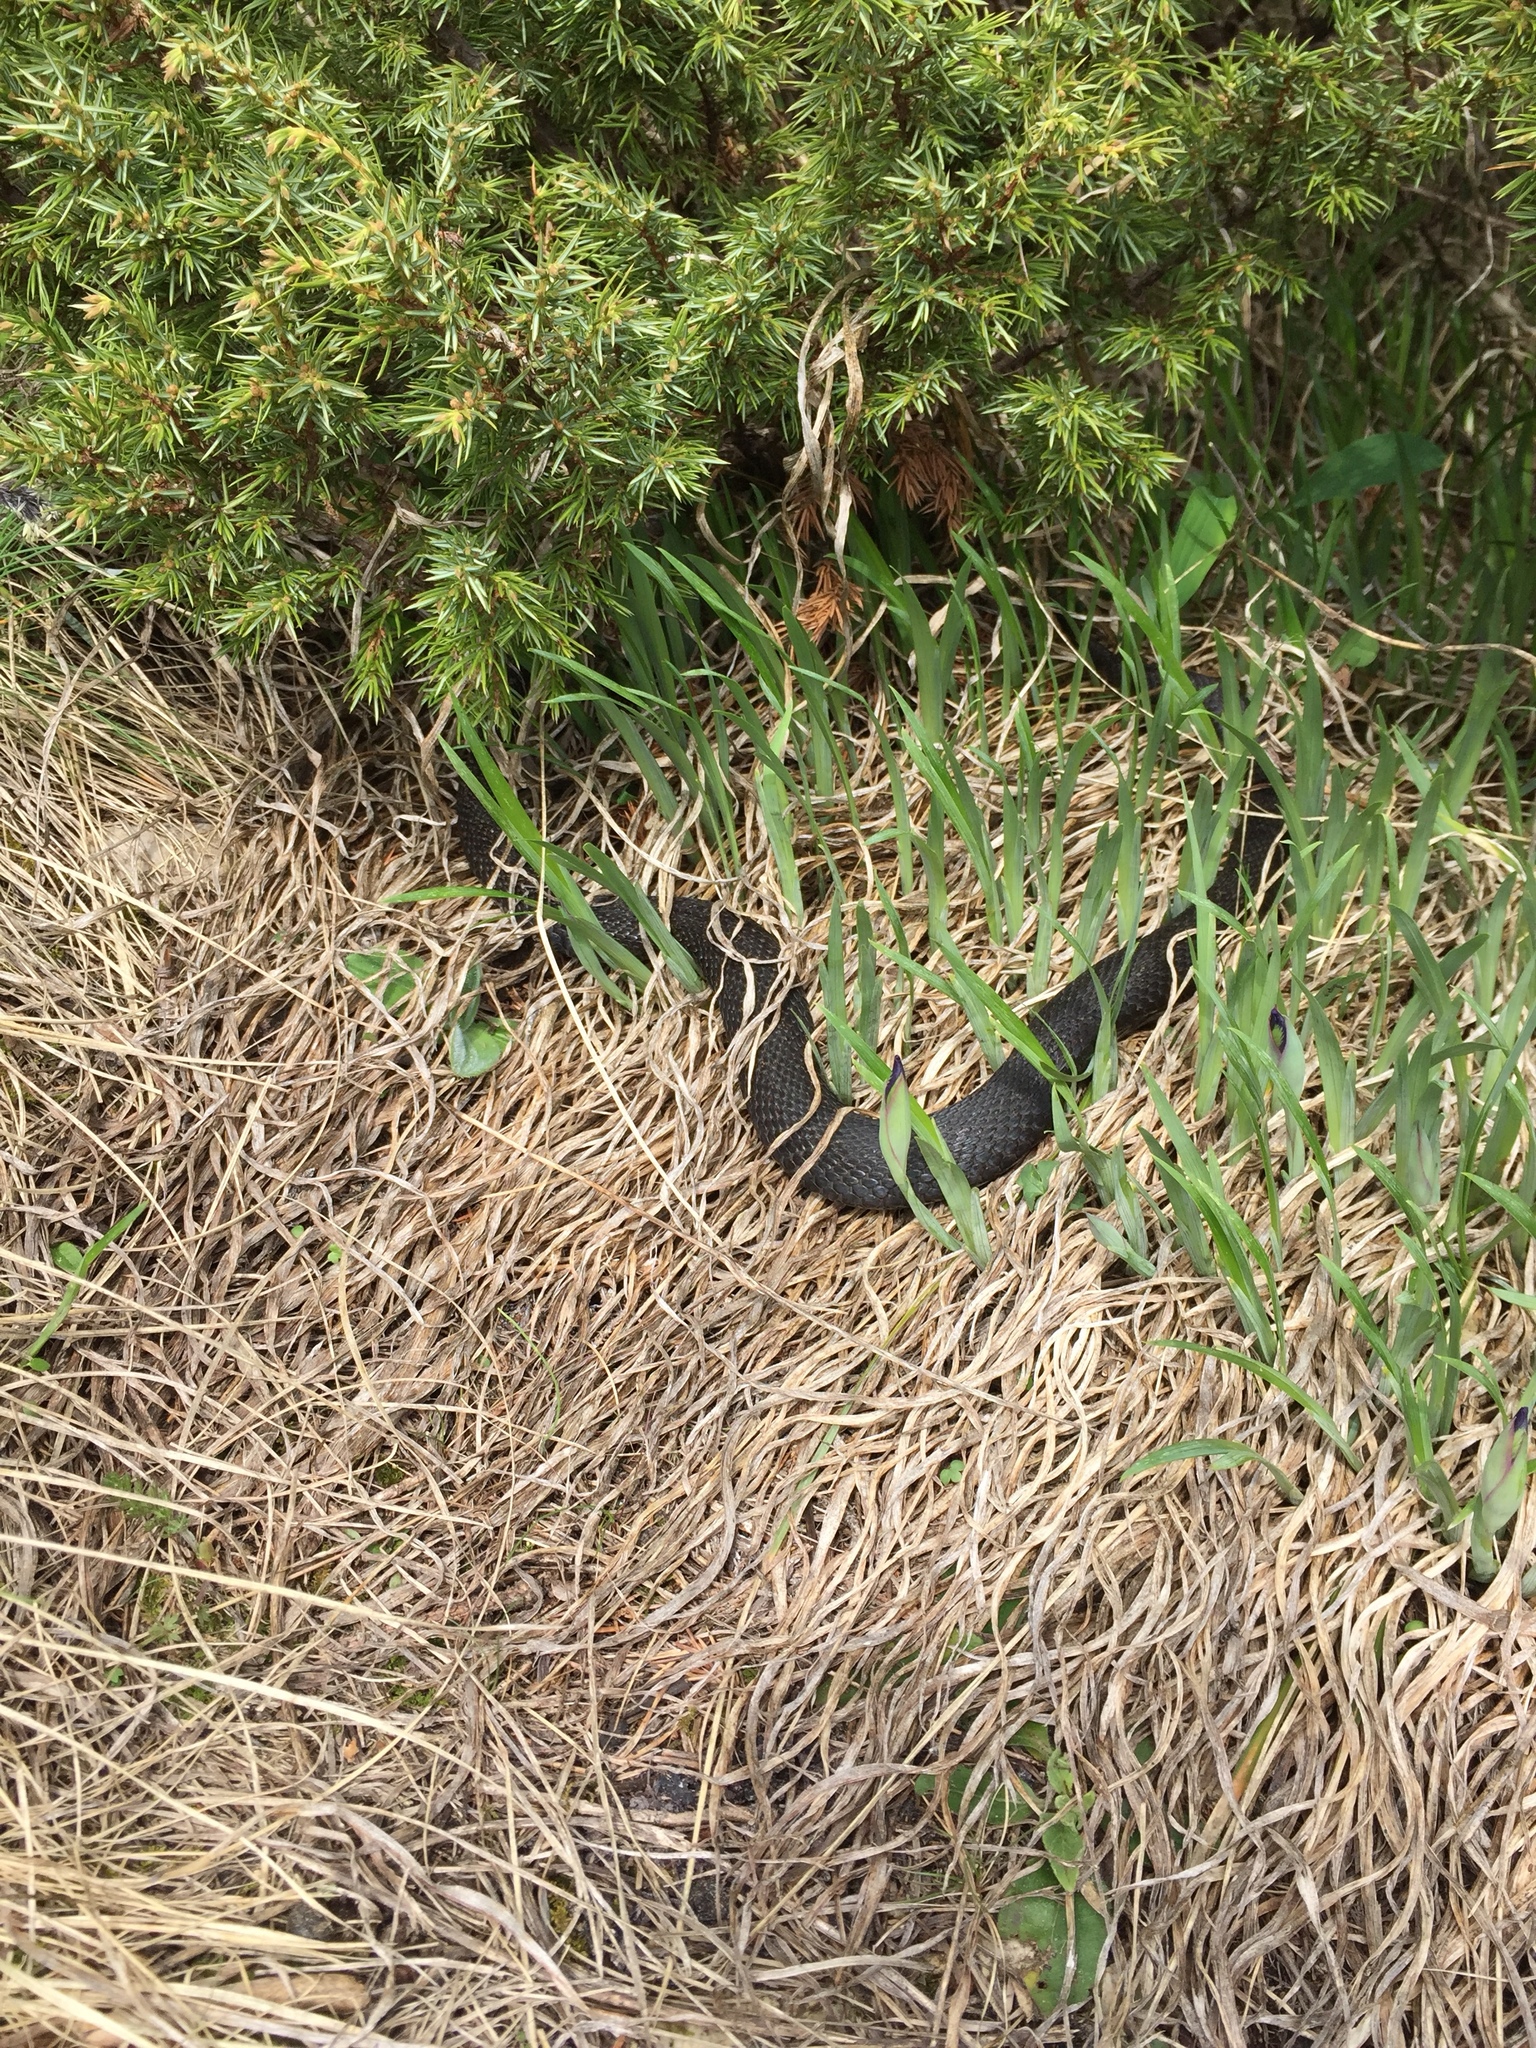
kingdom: Animalia
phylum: Chordata
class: Squamata
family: Viperidae
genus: Vipera
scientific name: Vipera berus
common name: Adder
